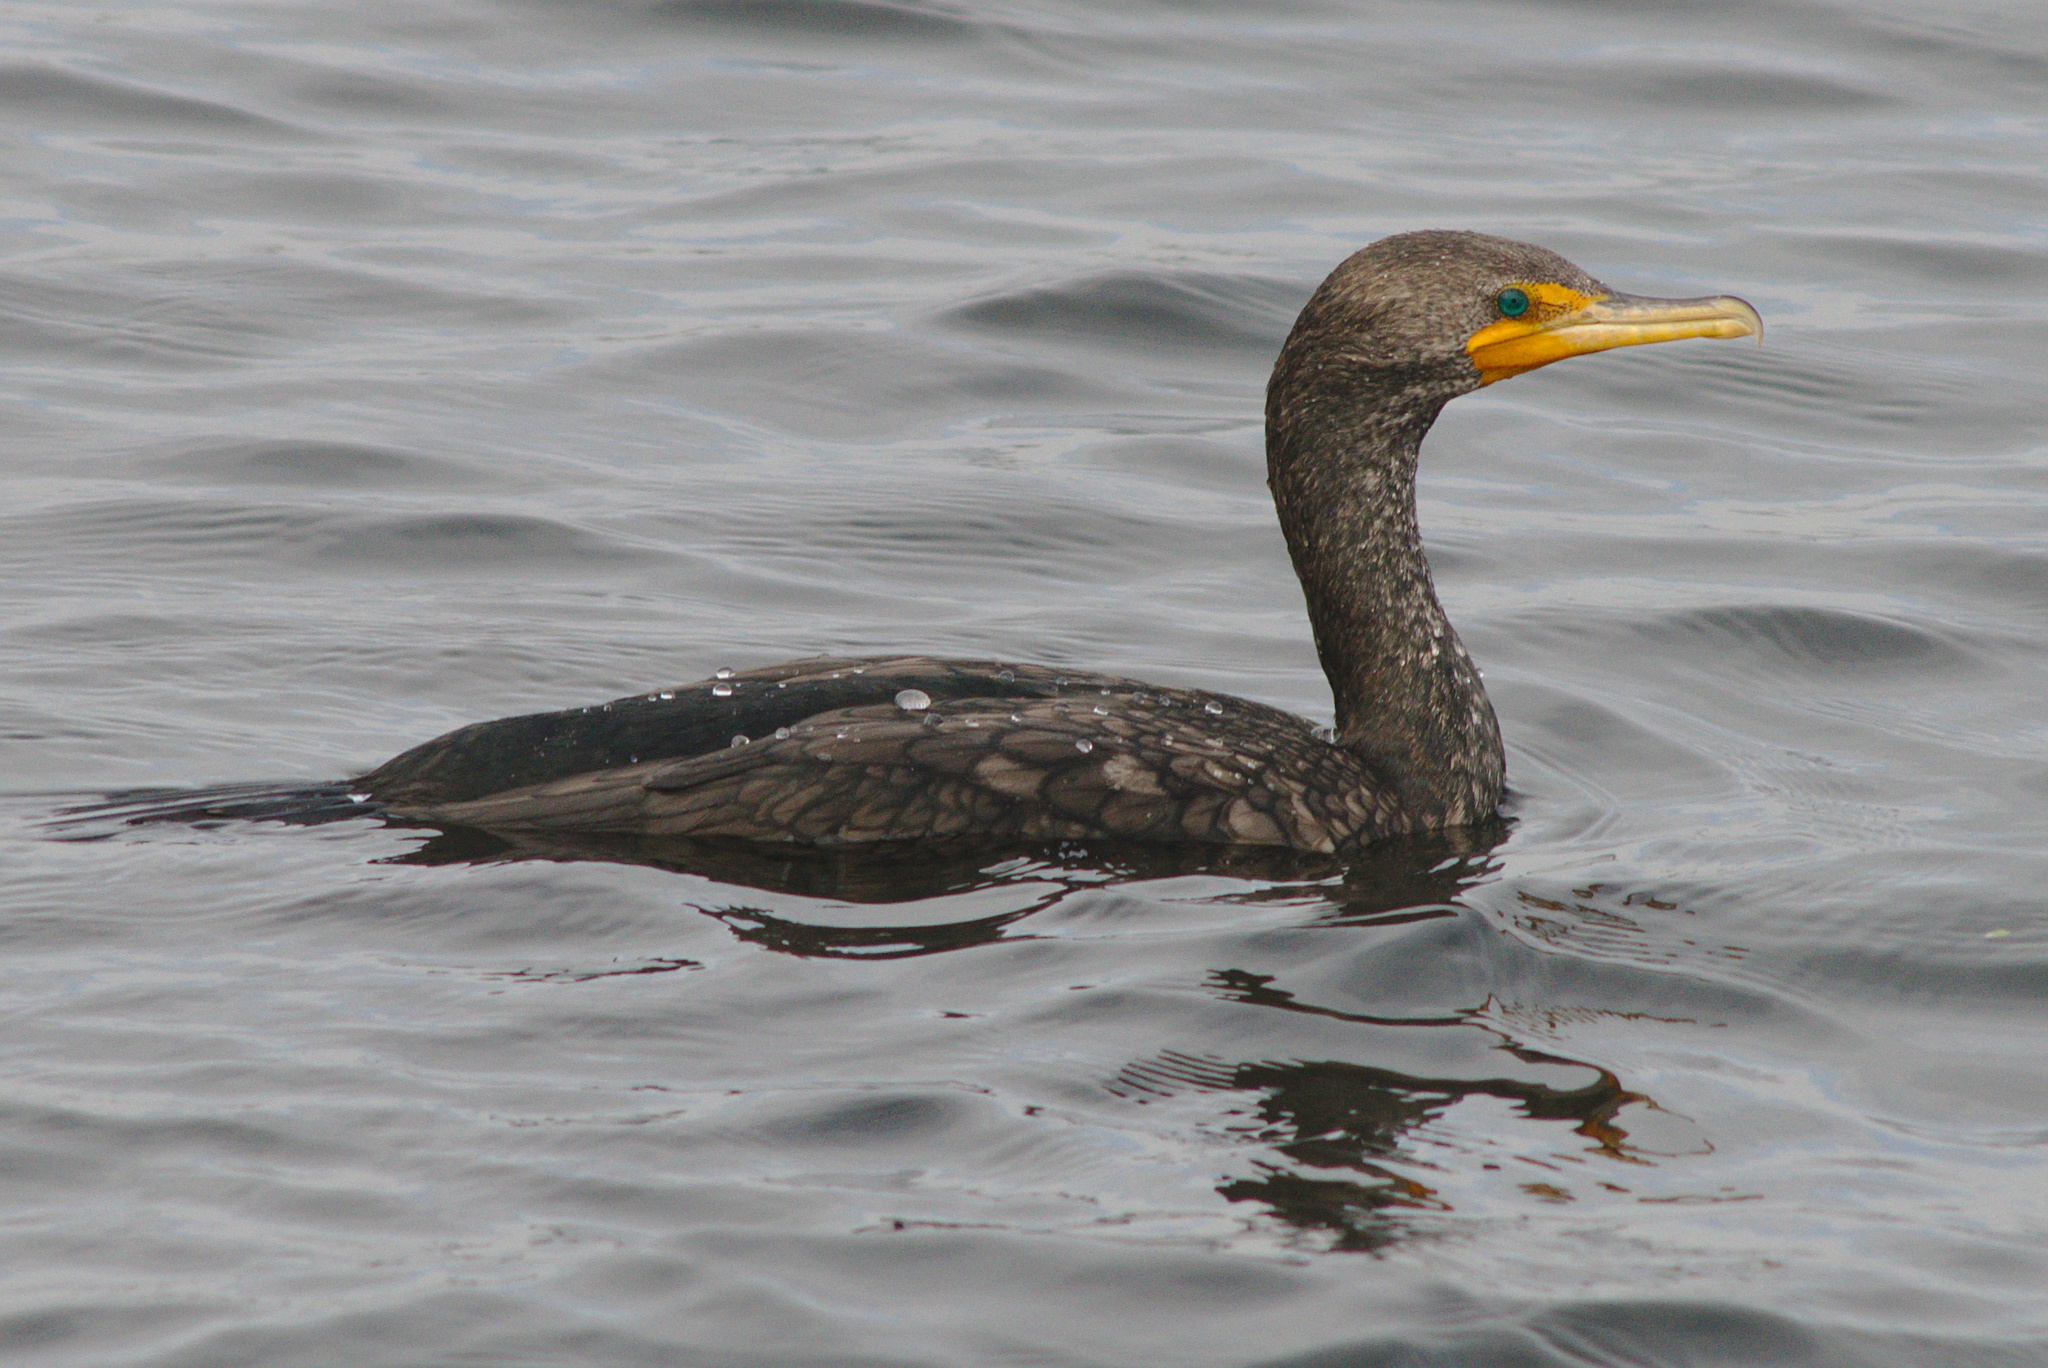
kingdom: Animalia
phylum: Chordata
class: Aves
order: Suliformes
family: Phalacrocoracidae
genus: Phalacrocorax
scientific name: Phalacrocorax auritus
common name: Double-crested cormorant
